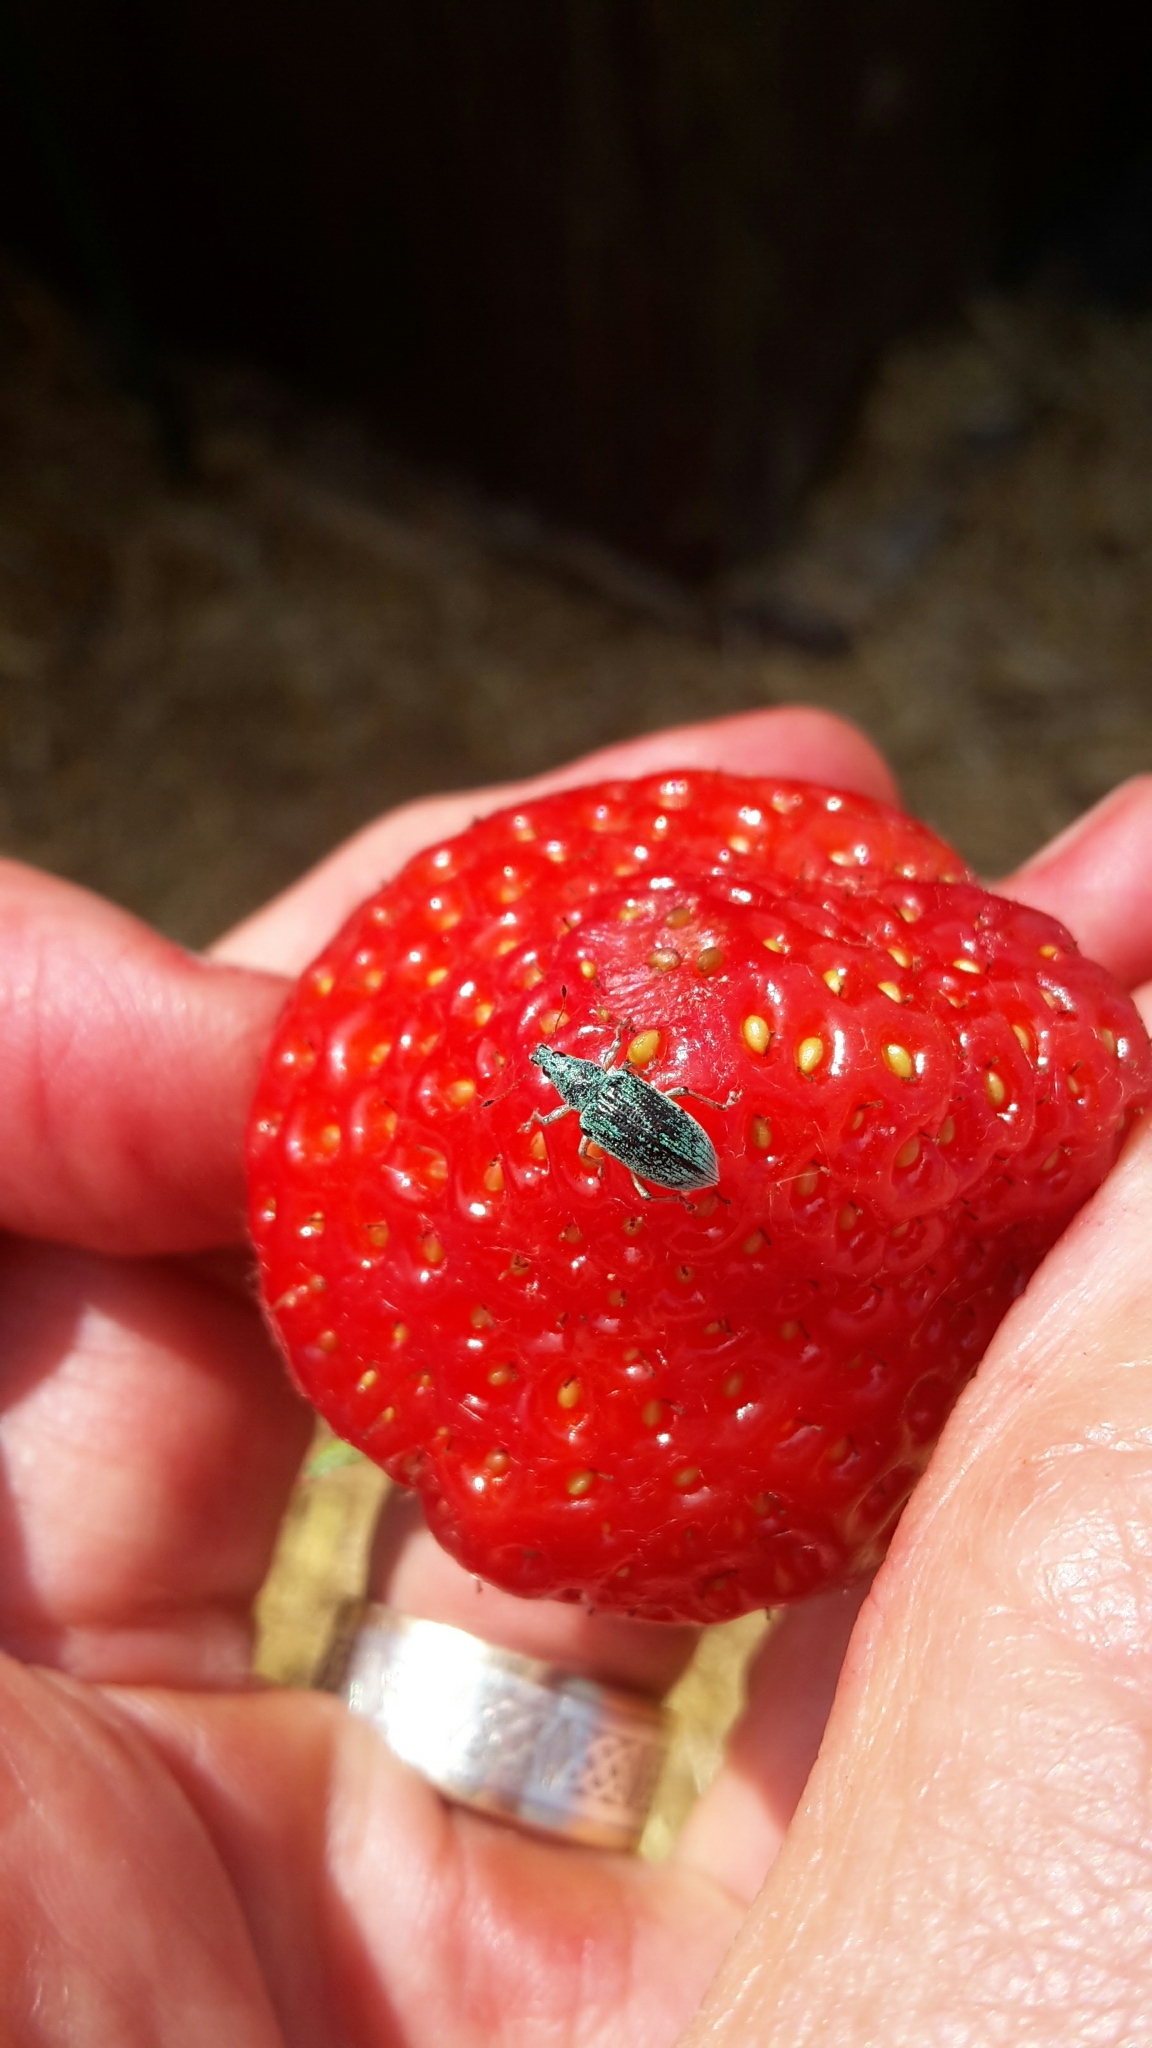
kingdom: Animalia
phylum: Arthropoda
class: Insecta
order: Coleoptera
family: Curculionidae
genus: Polydrusus
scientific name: Polydrusus formosus
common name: Weevil
